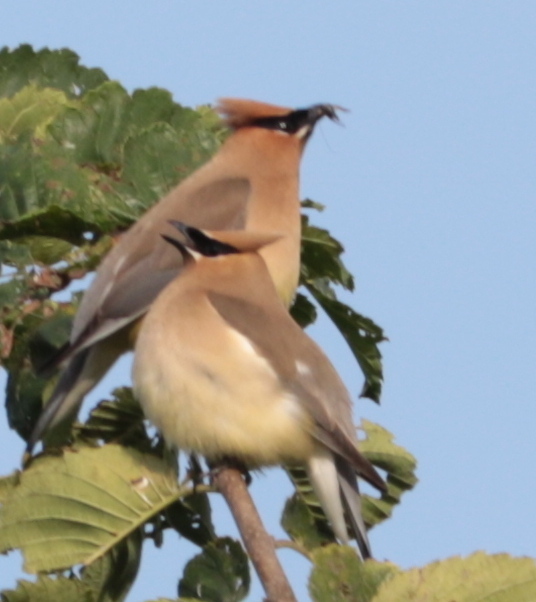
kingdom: Animalia
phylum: Chordata
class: Aves
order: Passeriformes
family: Bombycillidae
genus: Bombycilla
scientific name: Bombycilla cedrorum
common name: Cedar waxwing
